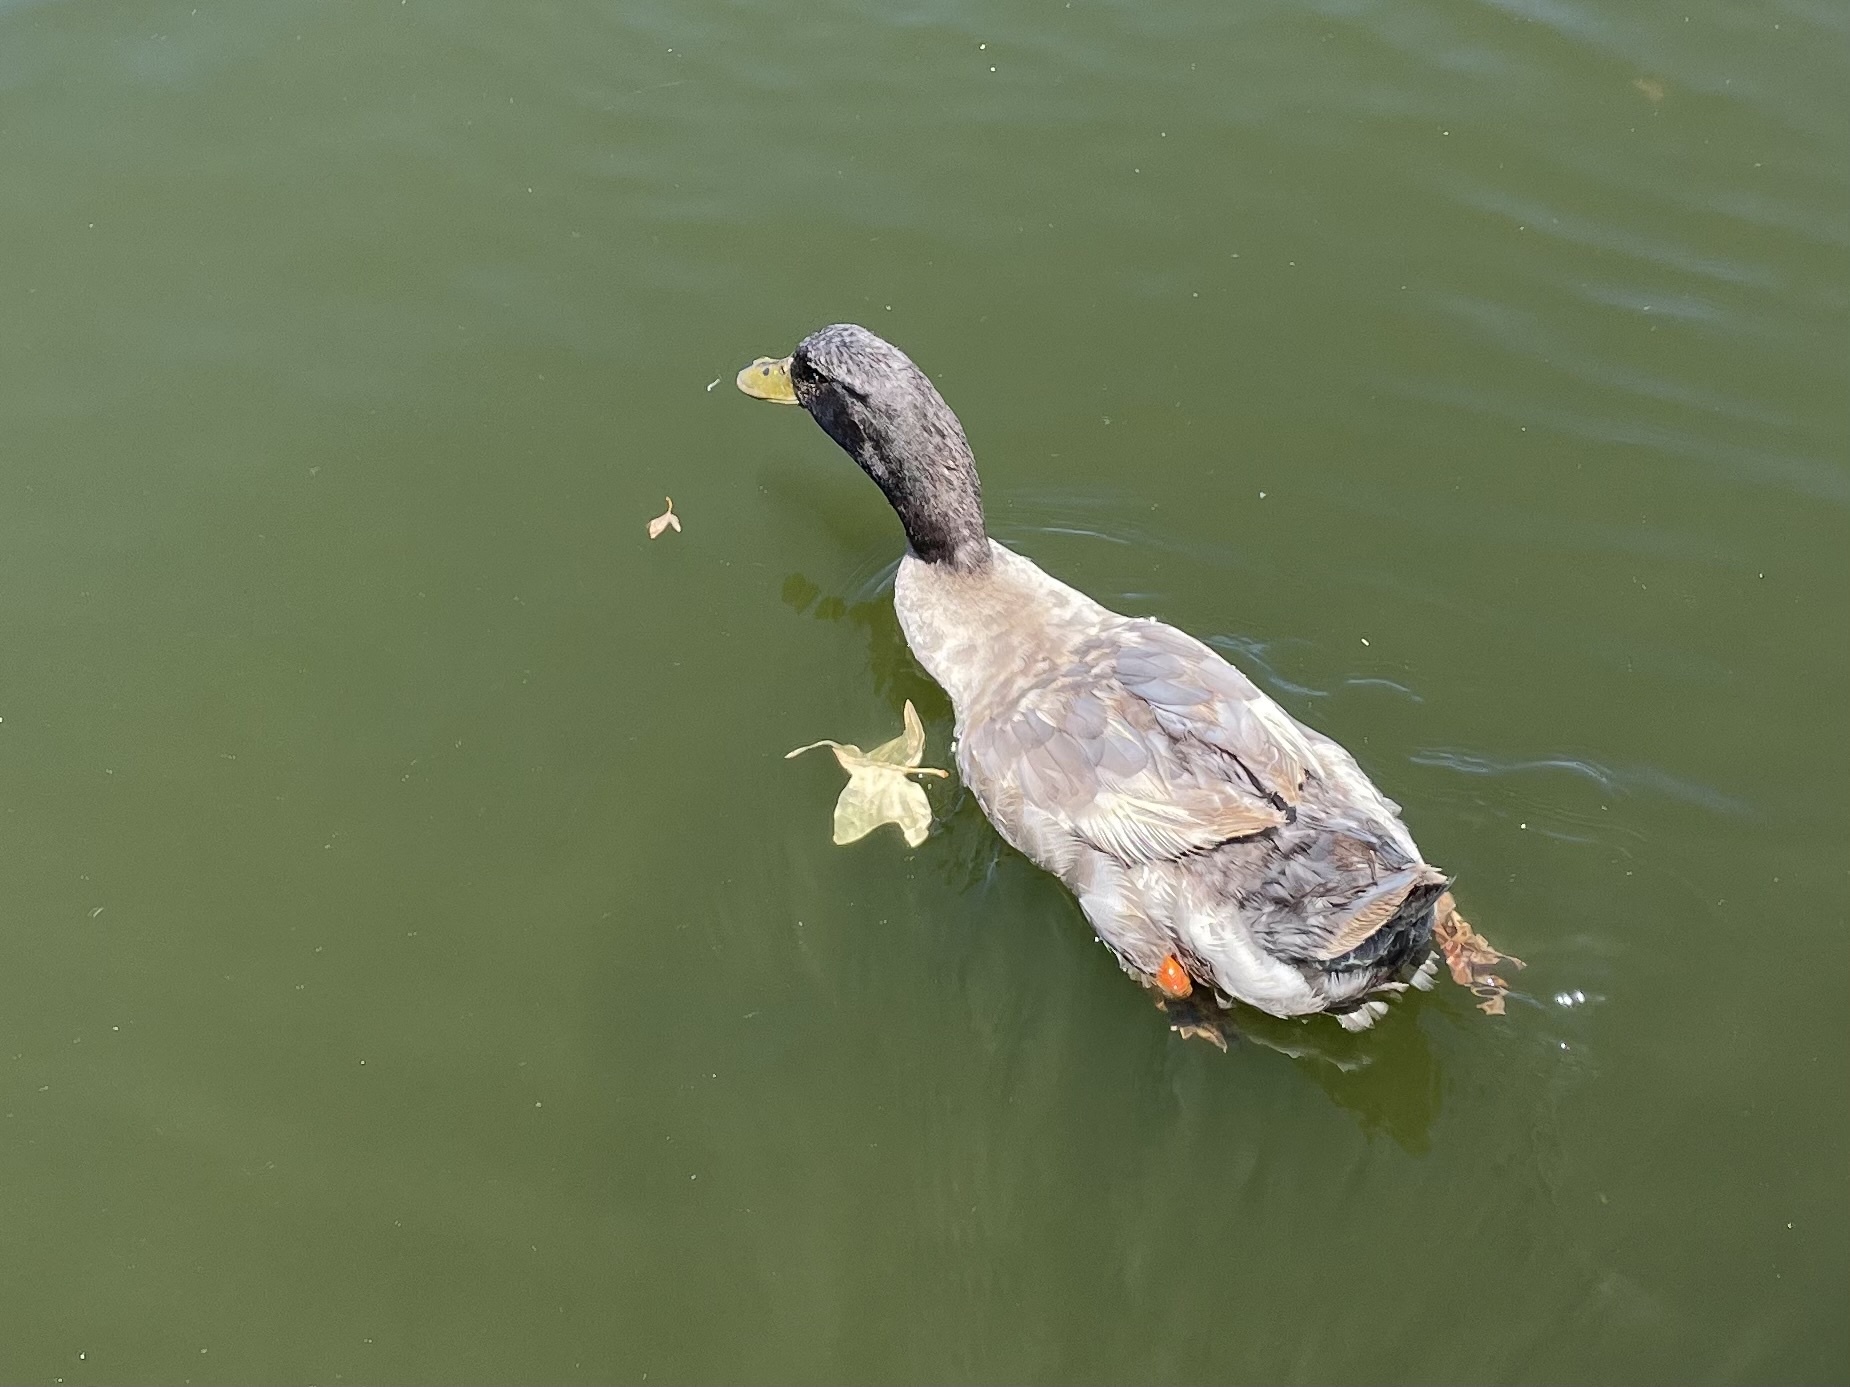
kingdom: Animalia
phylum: Chordata
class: Aves
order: Anseriformes
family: Anatidae
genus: Anas
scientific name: Anas platyrhynchos
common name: Mallard
